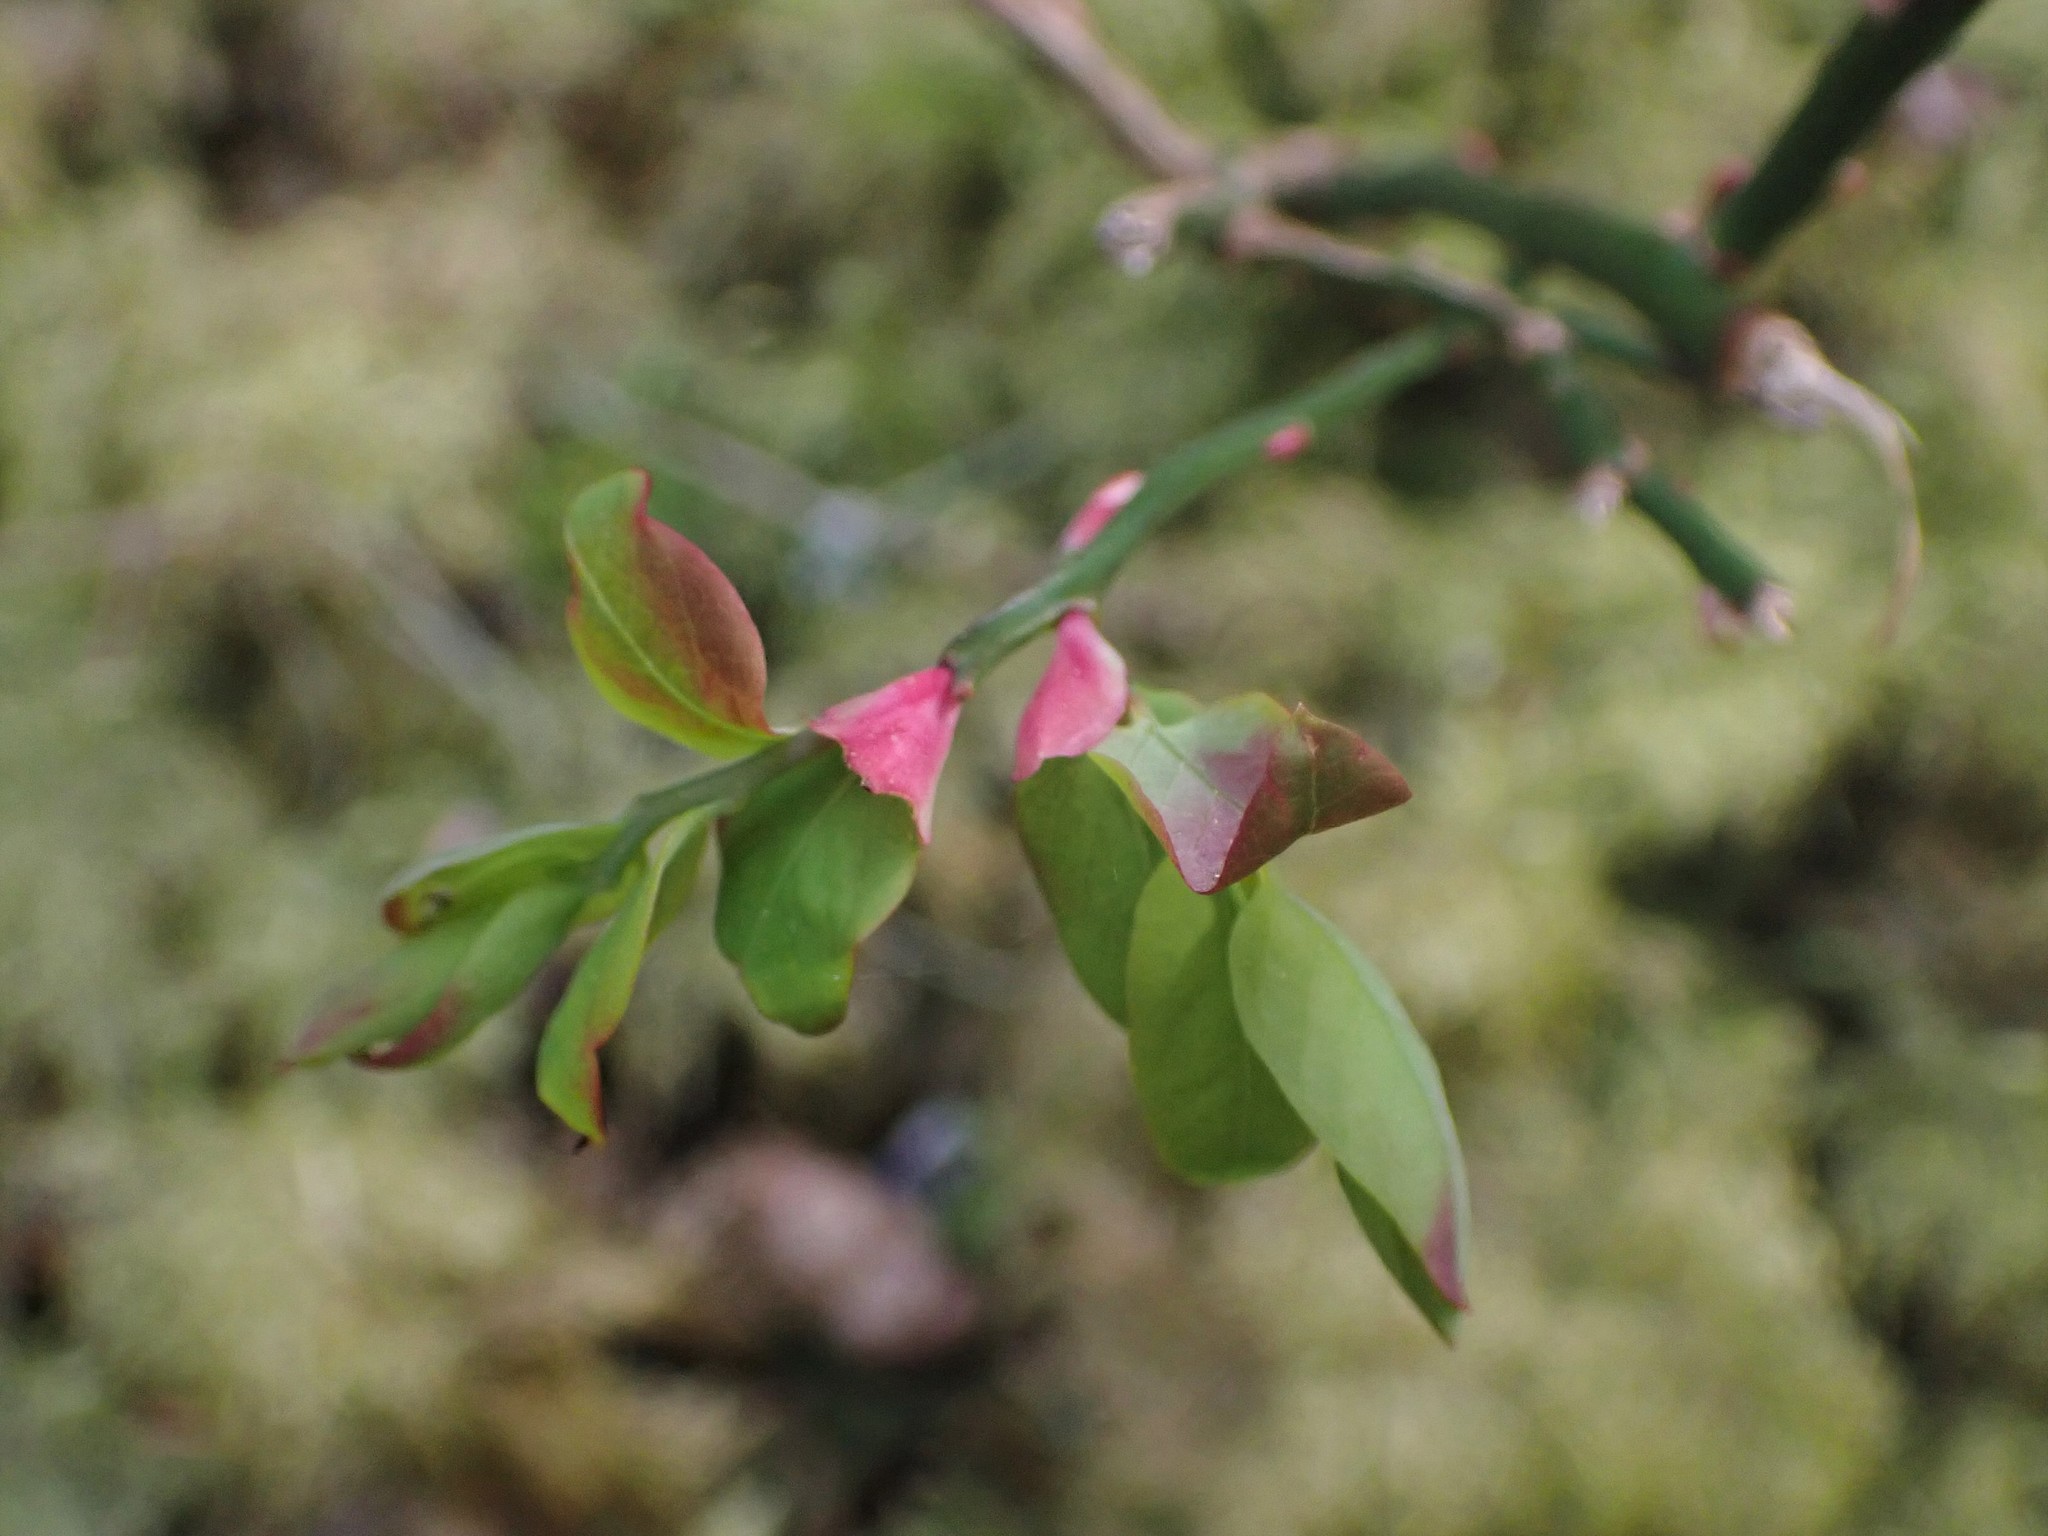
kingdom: Plantae
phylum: Tracheophyta
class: Magnoliopsida
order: Ericales
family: Ericaceae
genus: Vaccinium
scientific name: Vaccinium parvifolium
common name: Red-huckleberry
